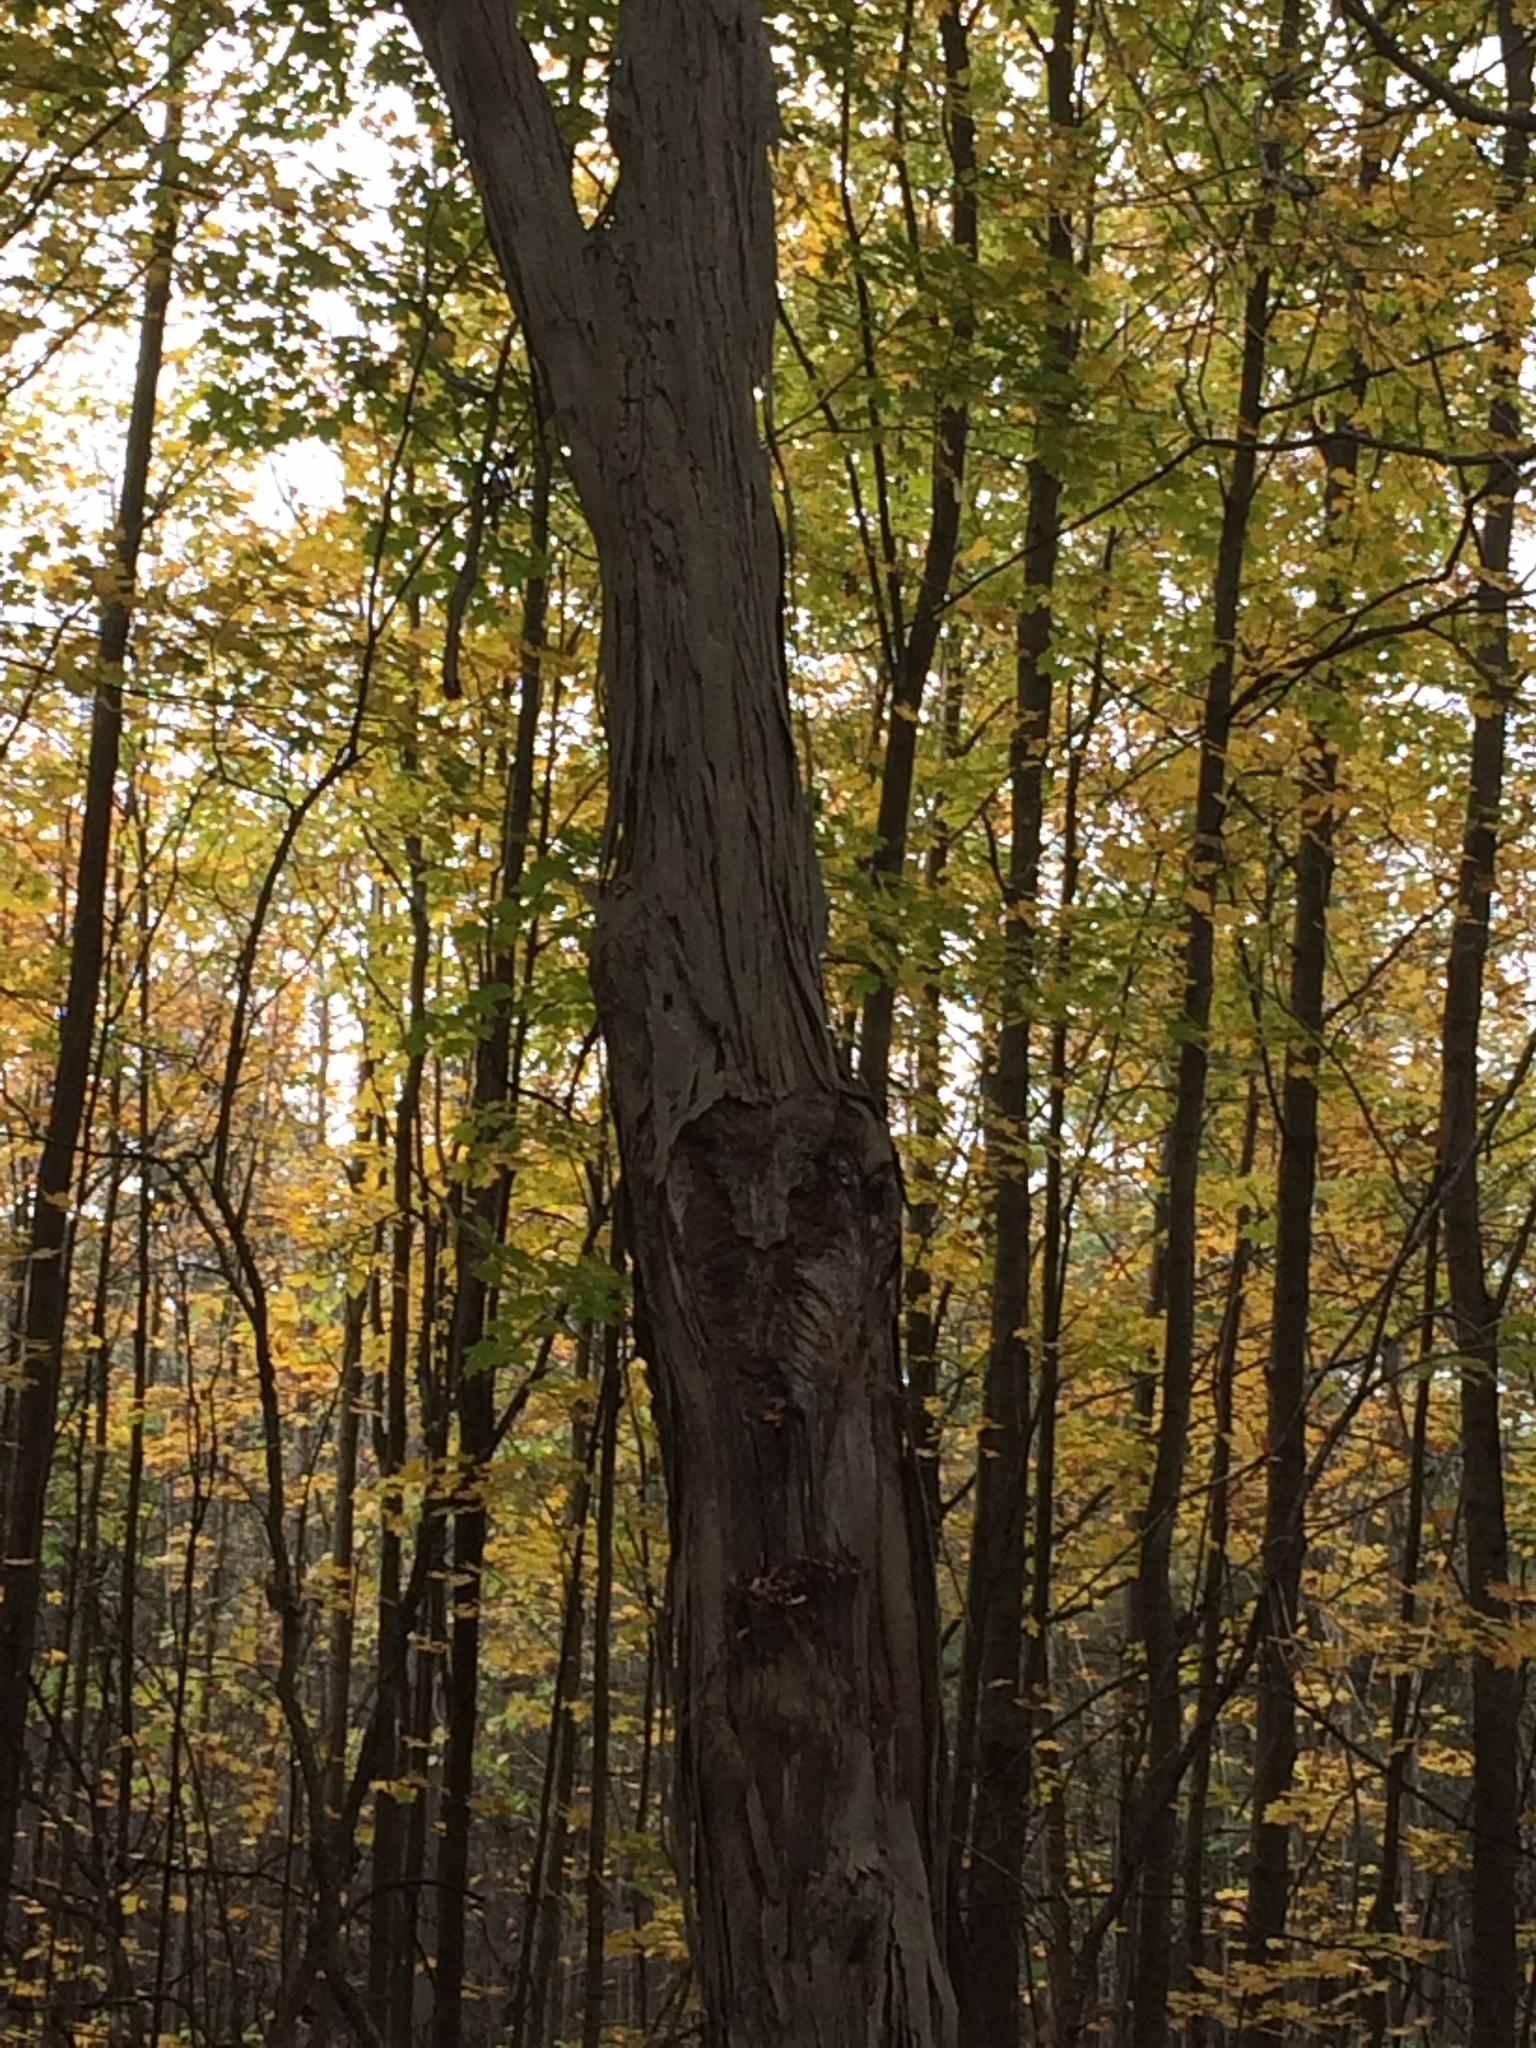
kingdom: Plantae
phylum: Tracheophyta
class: Magnoliopsida
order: Fagales
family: Juglandaceae
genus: Carya
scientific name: Carya ovata
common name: Shagbark hickory
